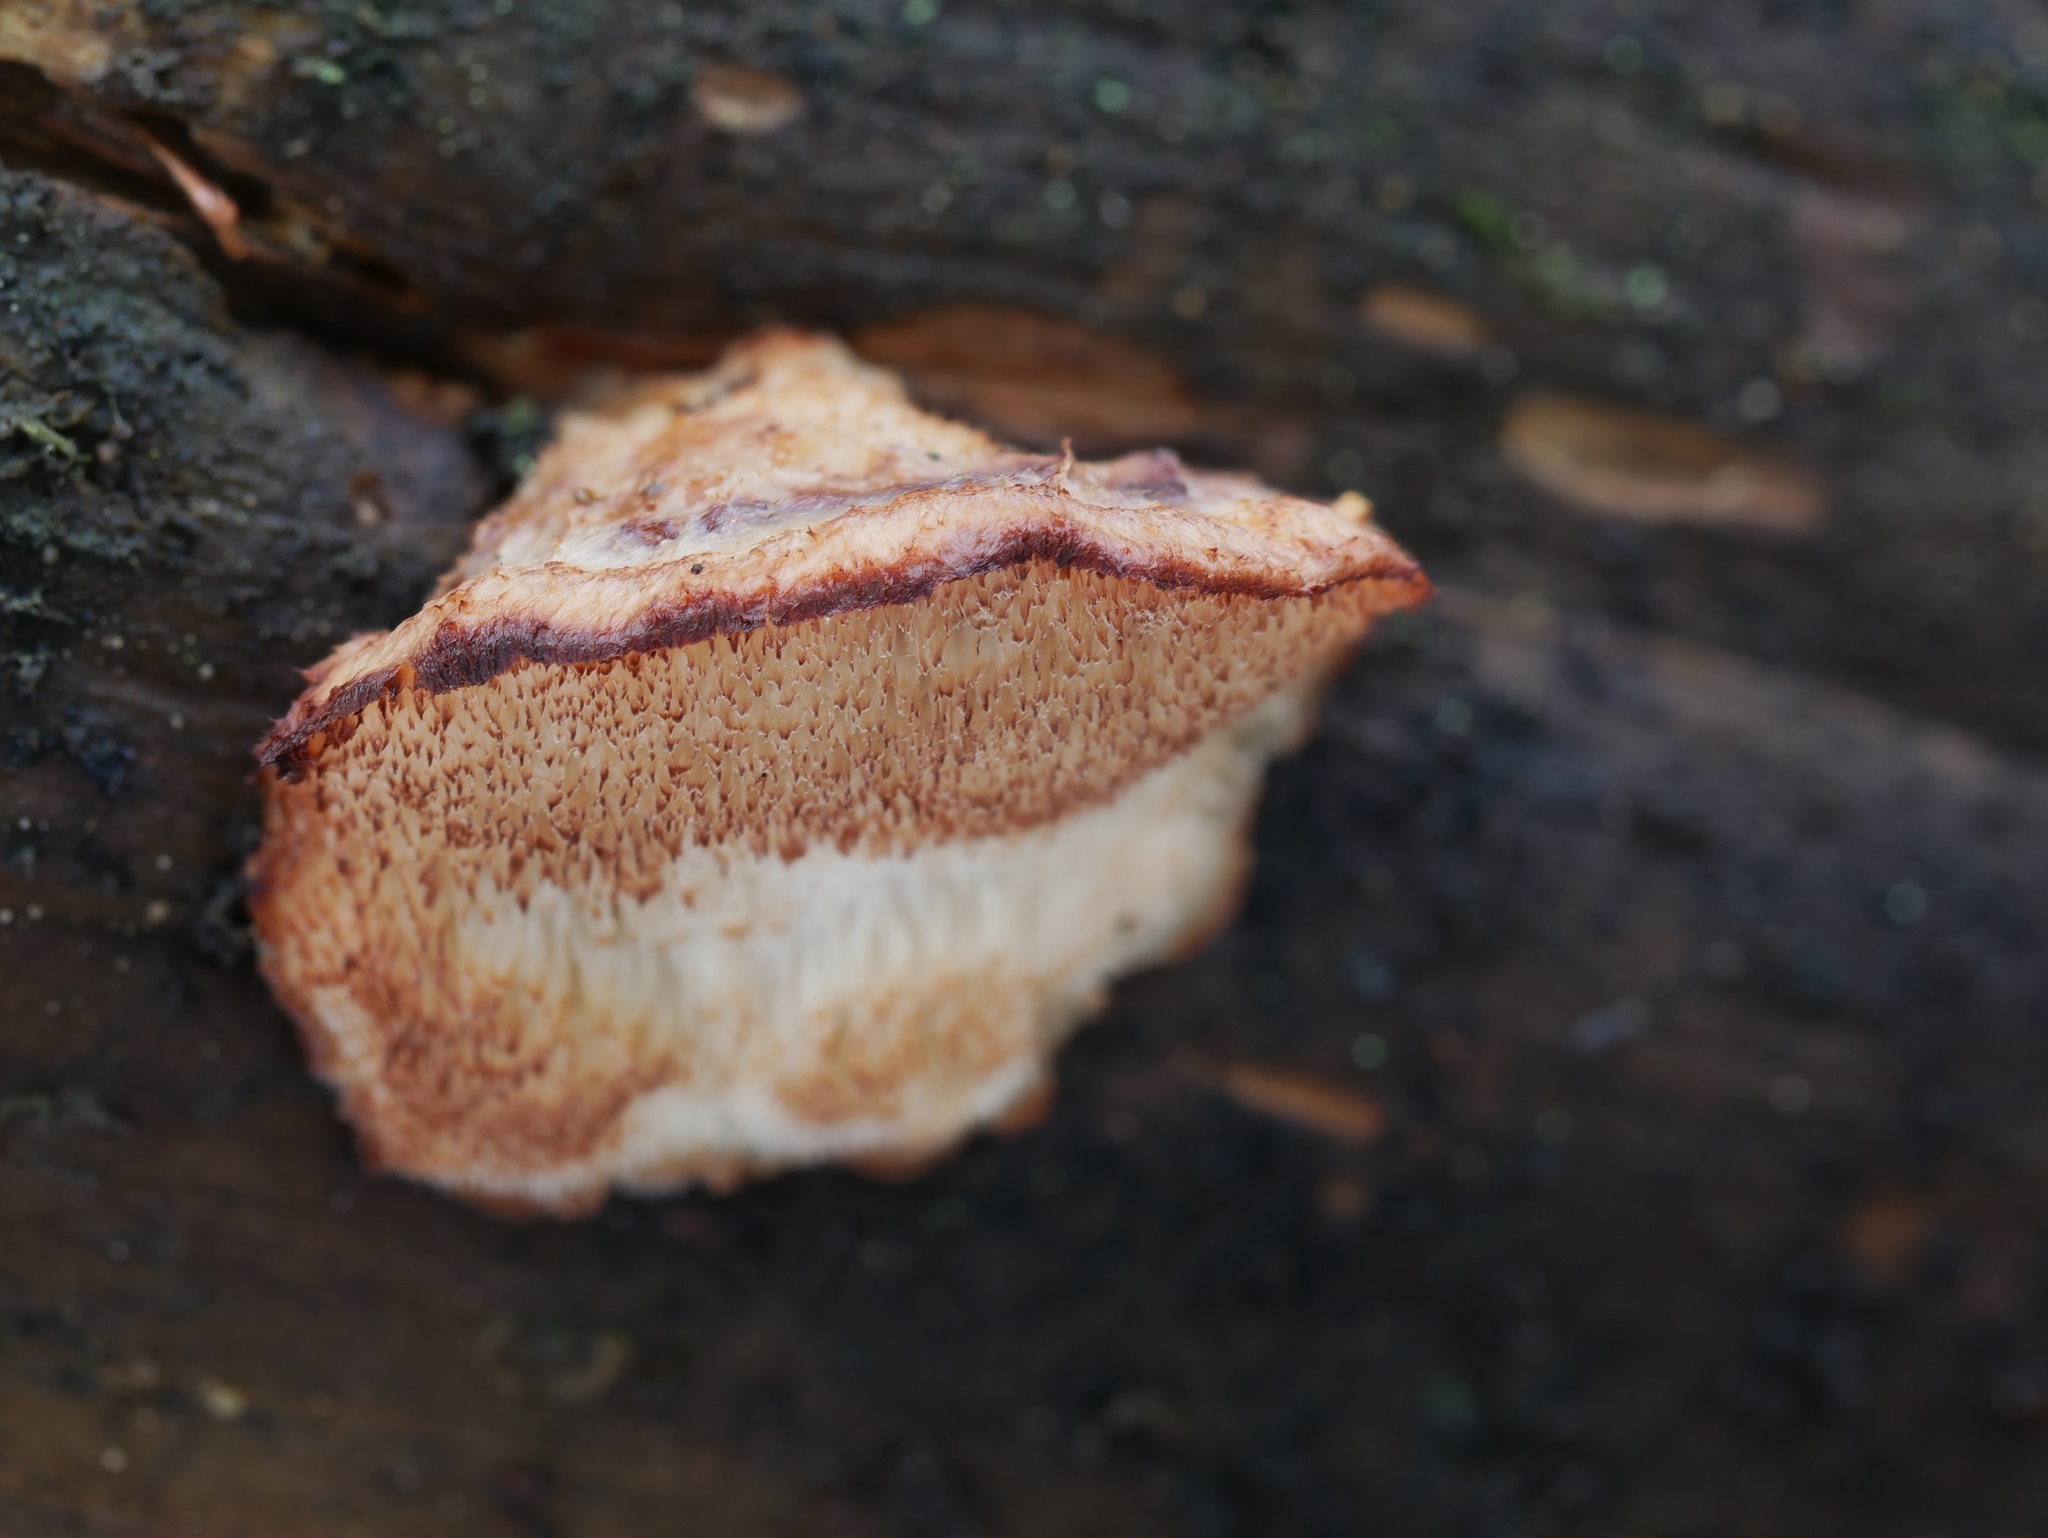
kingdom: Fungi
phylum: Basidiomycota
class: Agaricomycetes
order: Polyporales
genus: Fuscopostia
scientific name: Fuscopostia lateritia
